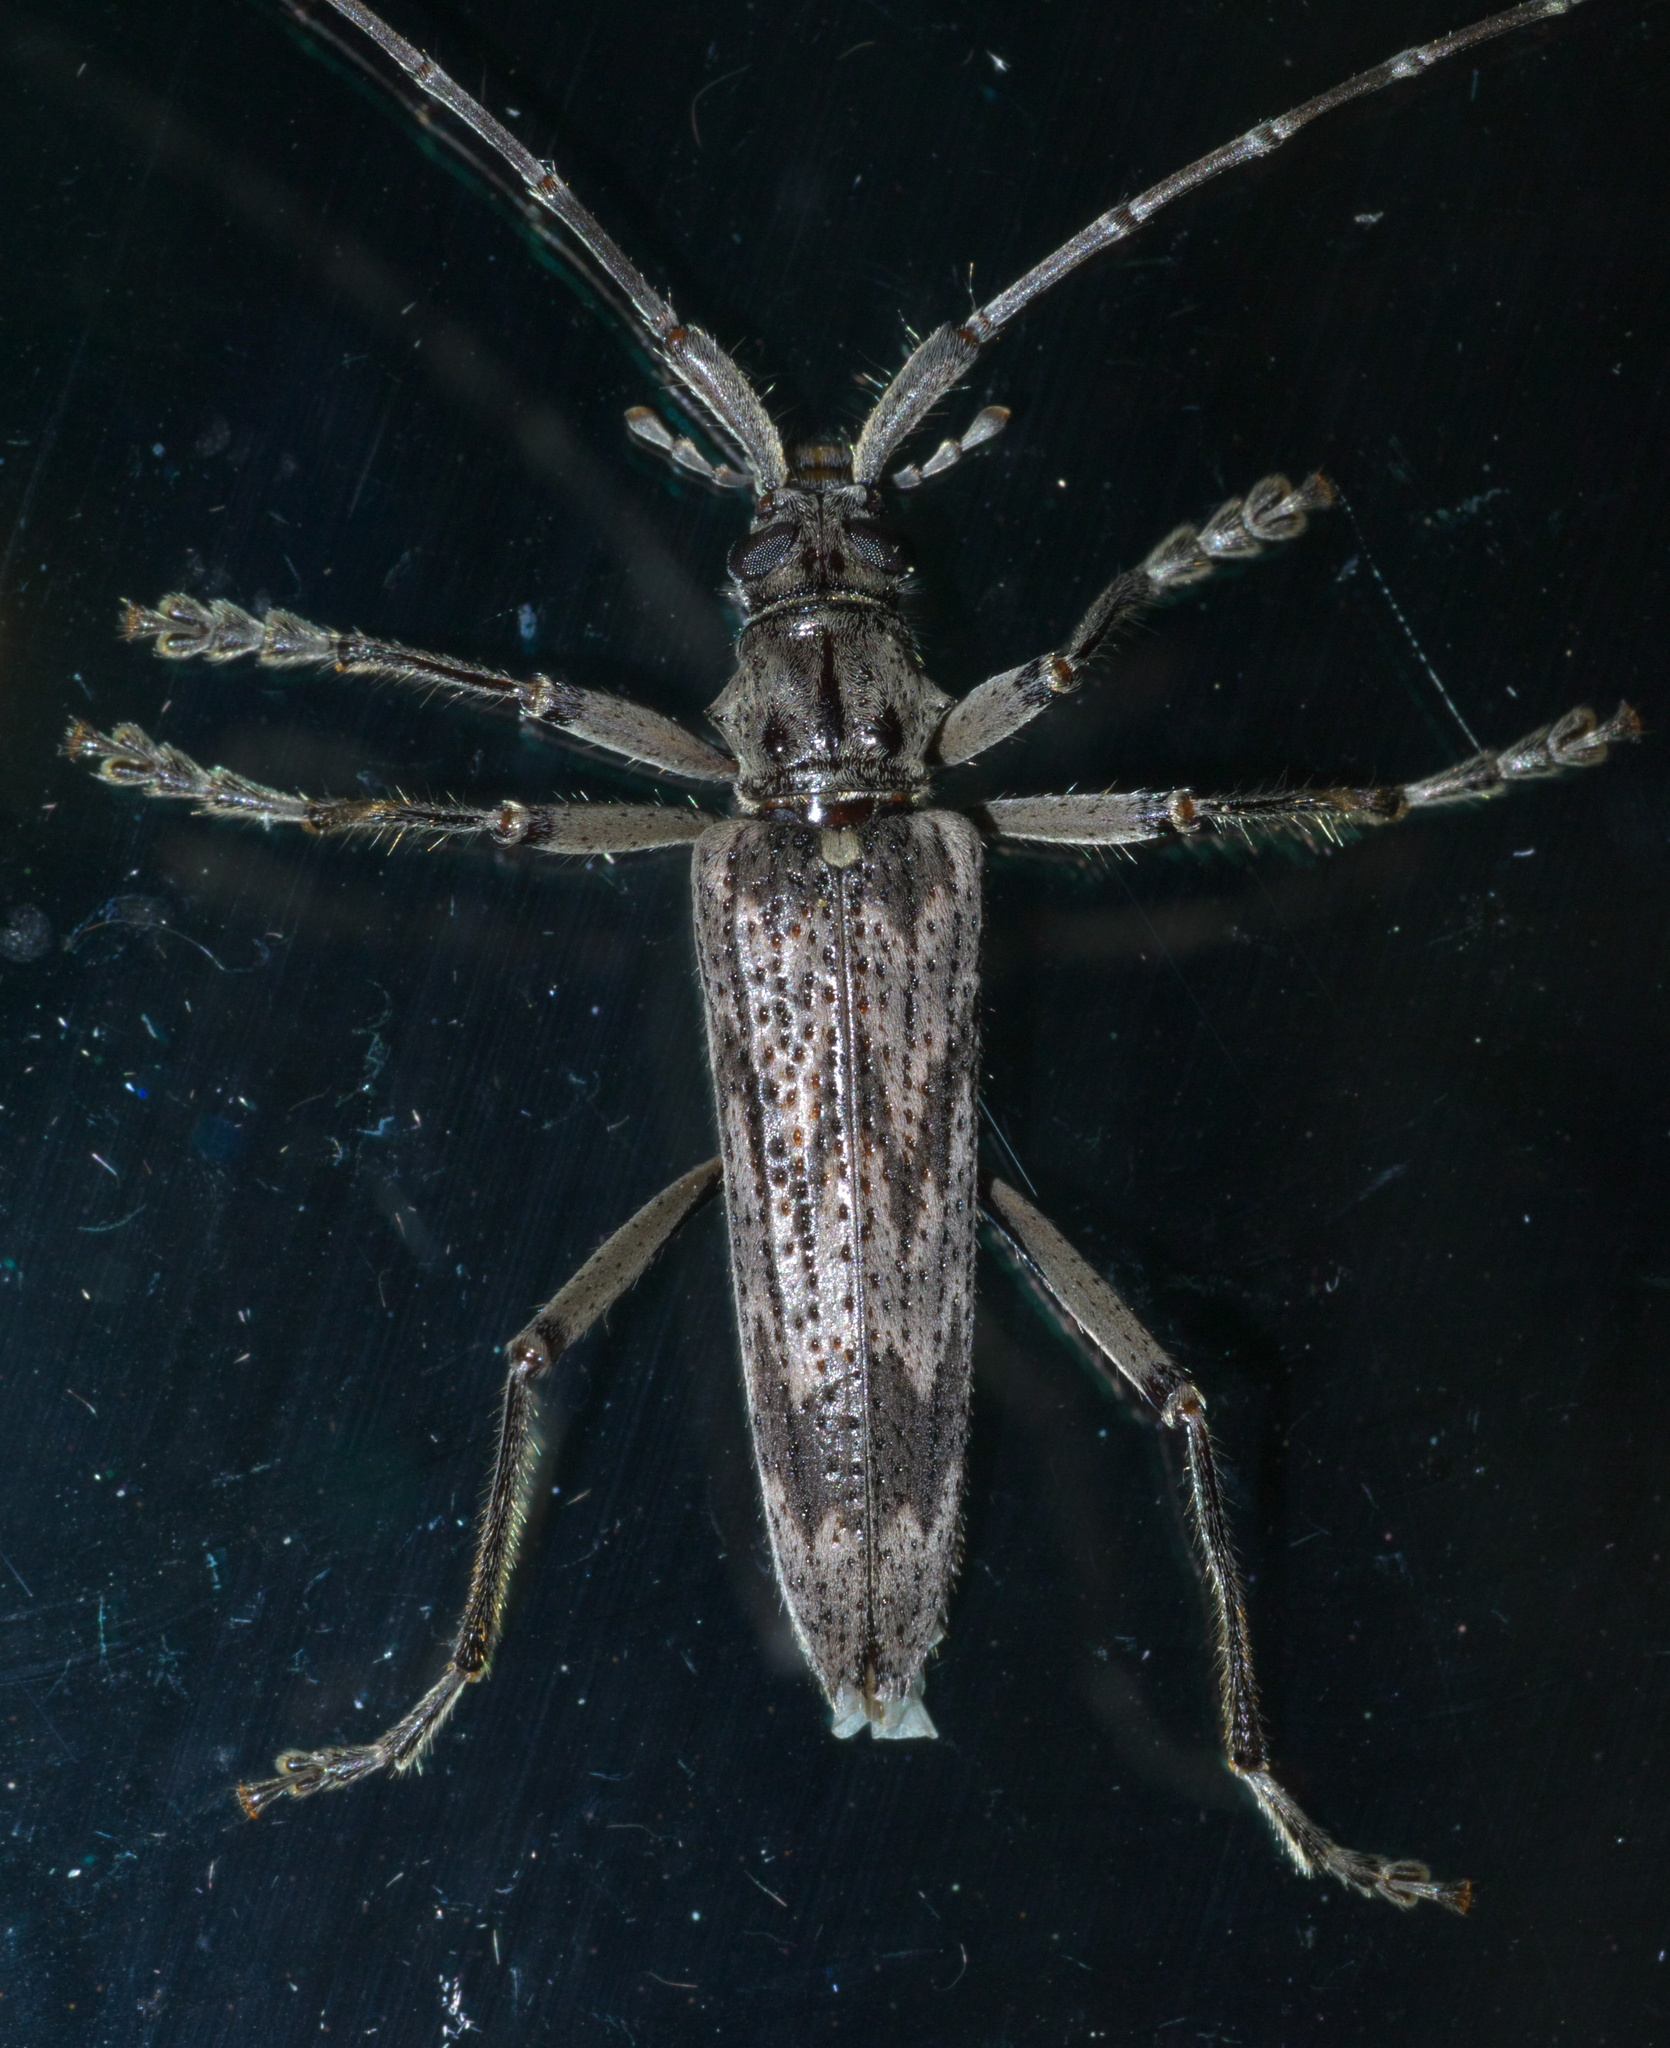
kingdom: Animalia
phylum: Arthropoda
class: Insecta
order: Coleoptera
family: Cerambycidae
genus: Elytrimitatrix
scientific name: Elytrimitatrix undata
